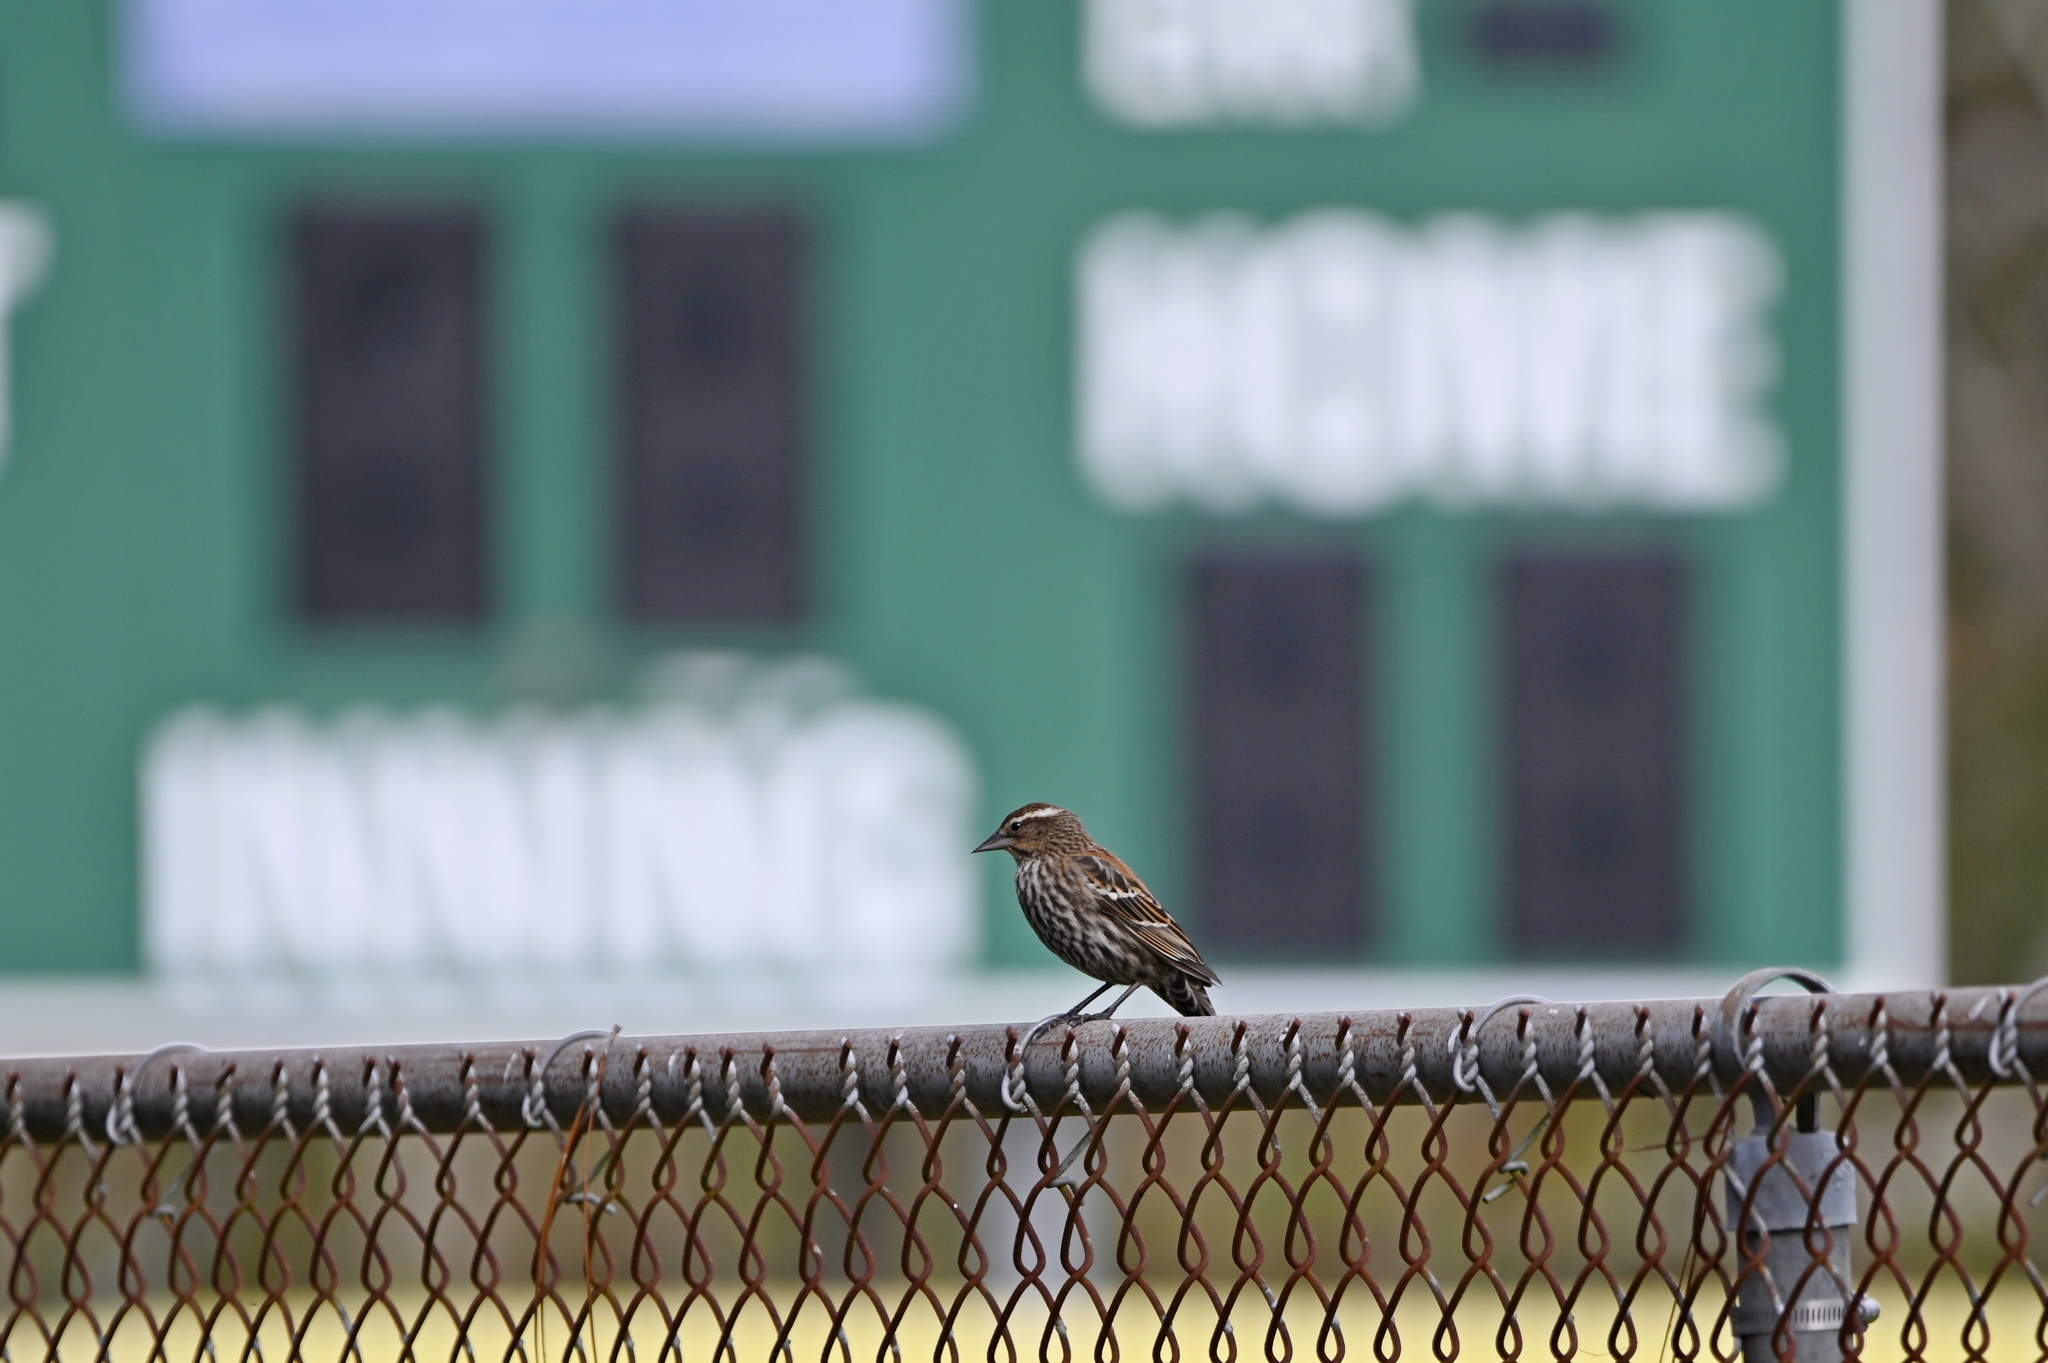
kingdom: Animalia
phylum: Chordata
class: Aves
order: Passeriformes
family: Icteridae
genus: Agelaius
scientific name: Agelaius phoeniceus
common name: Red-winged blackbird
